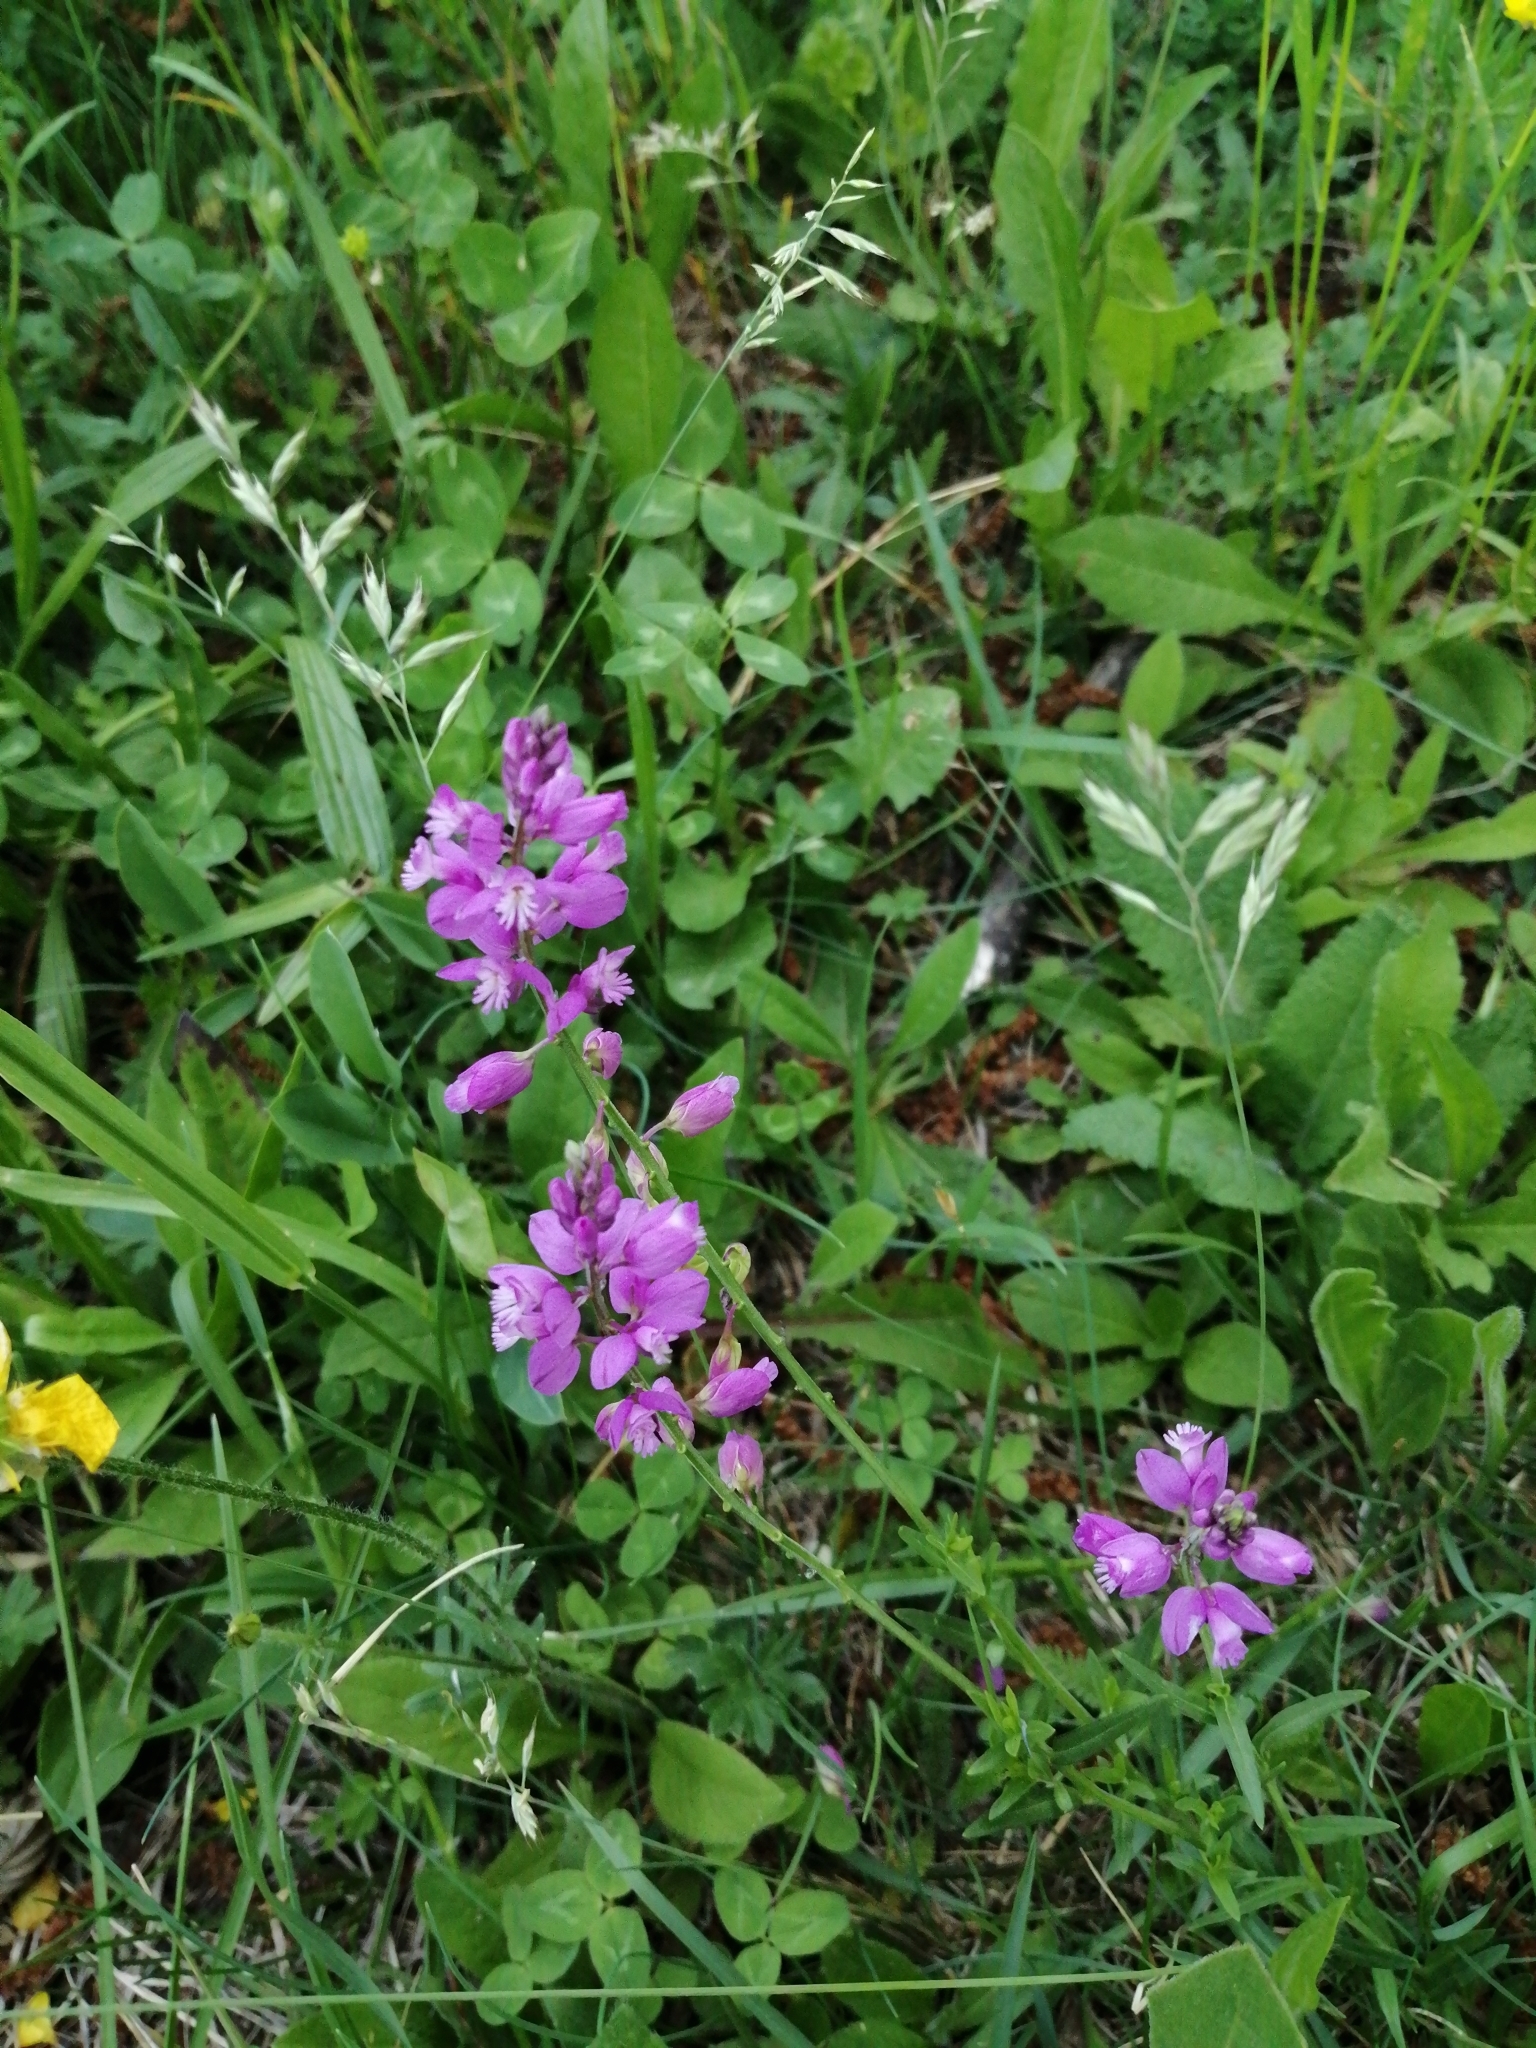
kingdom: Plantae
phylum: Tracheophyta
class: Magnoliopsida
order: Fabales
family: Polygalaceae
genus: Polygala
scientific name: Polygala nicaeensis
